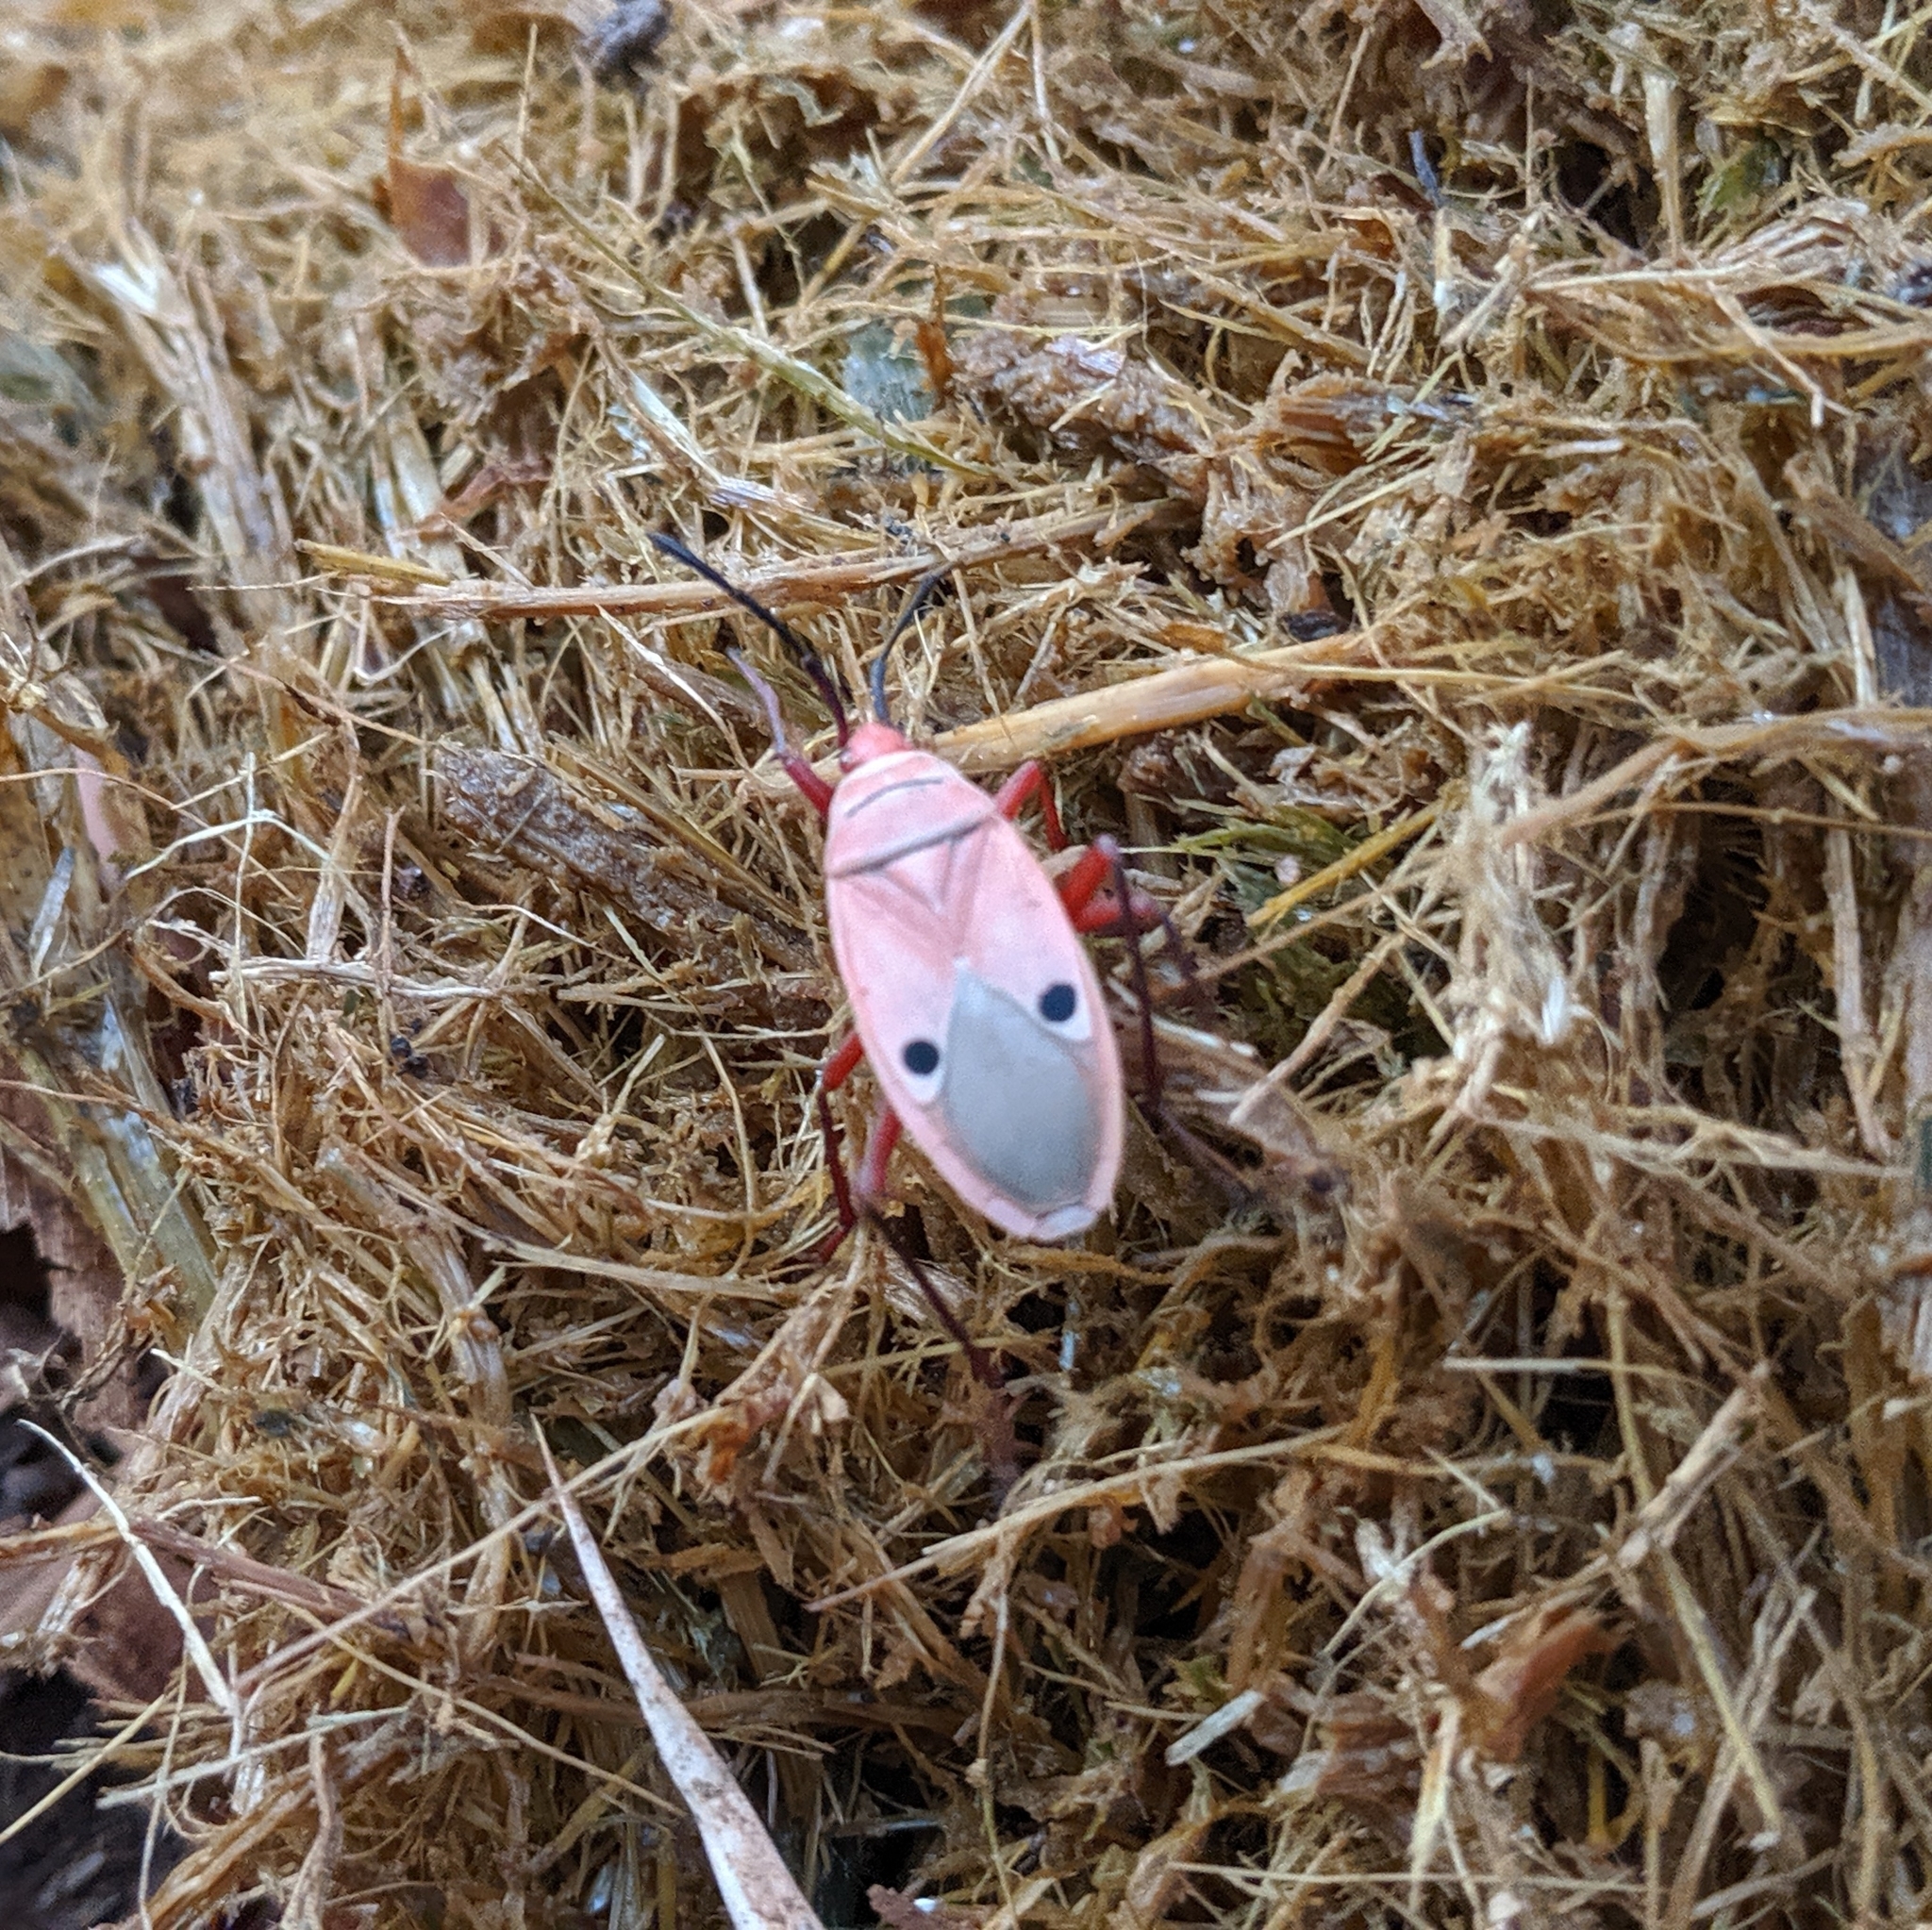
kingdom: Animalia
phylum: Arthropoda
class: Insecta
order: Hemiptera
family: Pyrrhocoridae
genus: Probergrothius
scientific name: Probergrothius nigricornis
